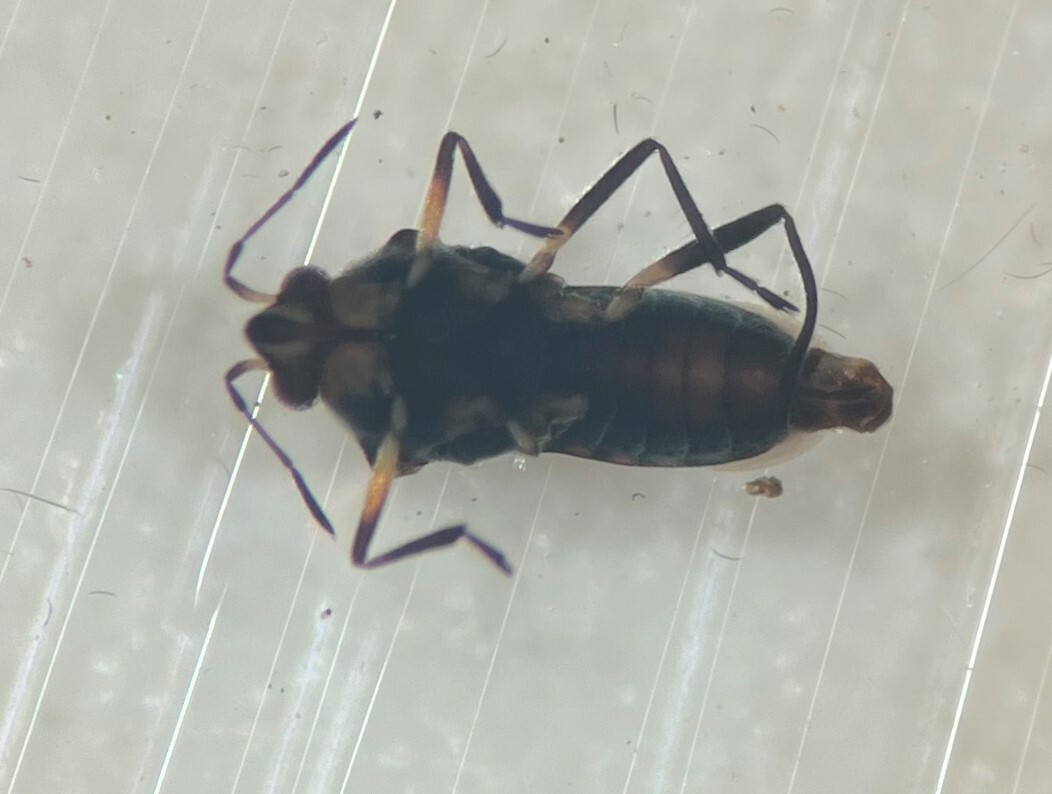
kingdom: Animalia
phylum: Arthropoda
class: Insecta
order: Hemiptera
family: Veliidae
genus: Microvelia
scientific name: Microvelia pulchella
